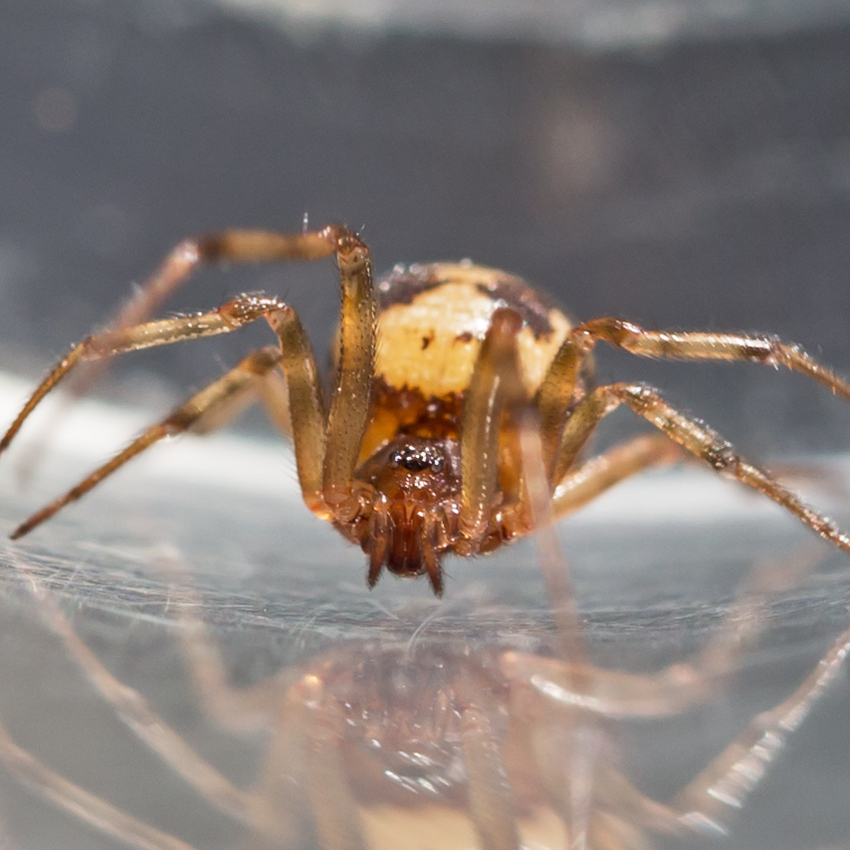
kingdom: Animalia
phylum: Arthropoda
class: Arachnida
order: Araneae
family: Theridiidae
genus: Steatoda
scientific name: Steatoda triangulosa
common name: Triangulate bud spider
